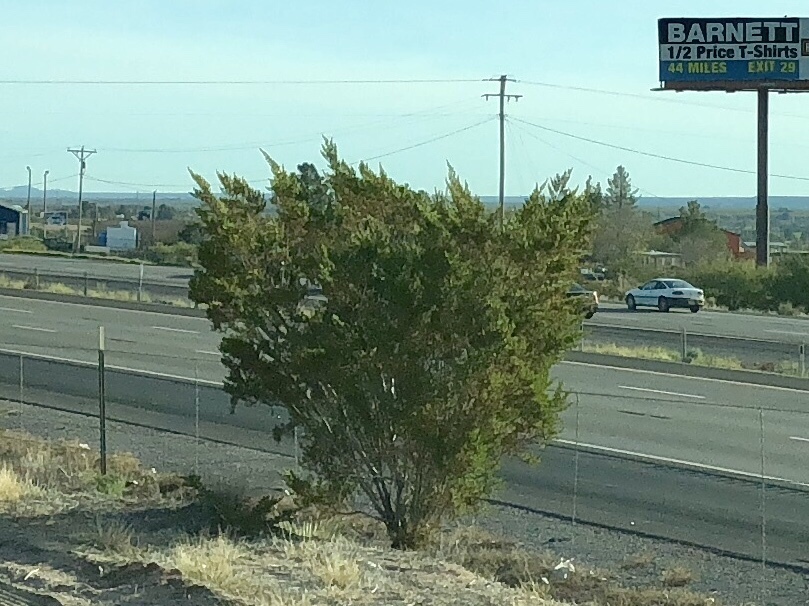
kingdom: Plantae
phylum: Tracheophyta
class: Magnoliopsida
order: Zygophyllales
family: Zygophyllaceae
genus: Larrea
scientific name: Larrea tridentata
